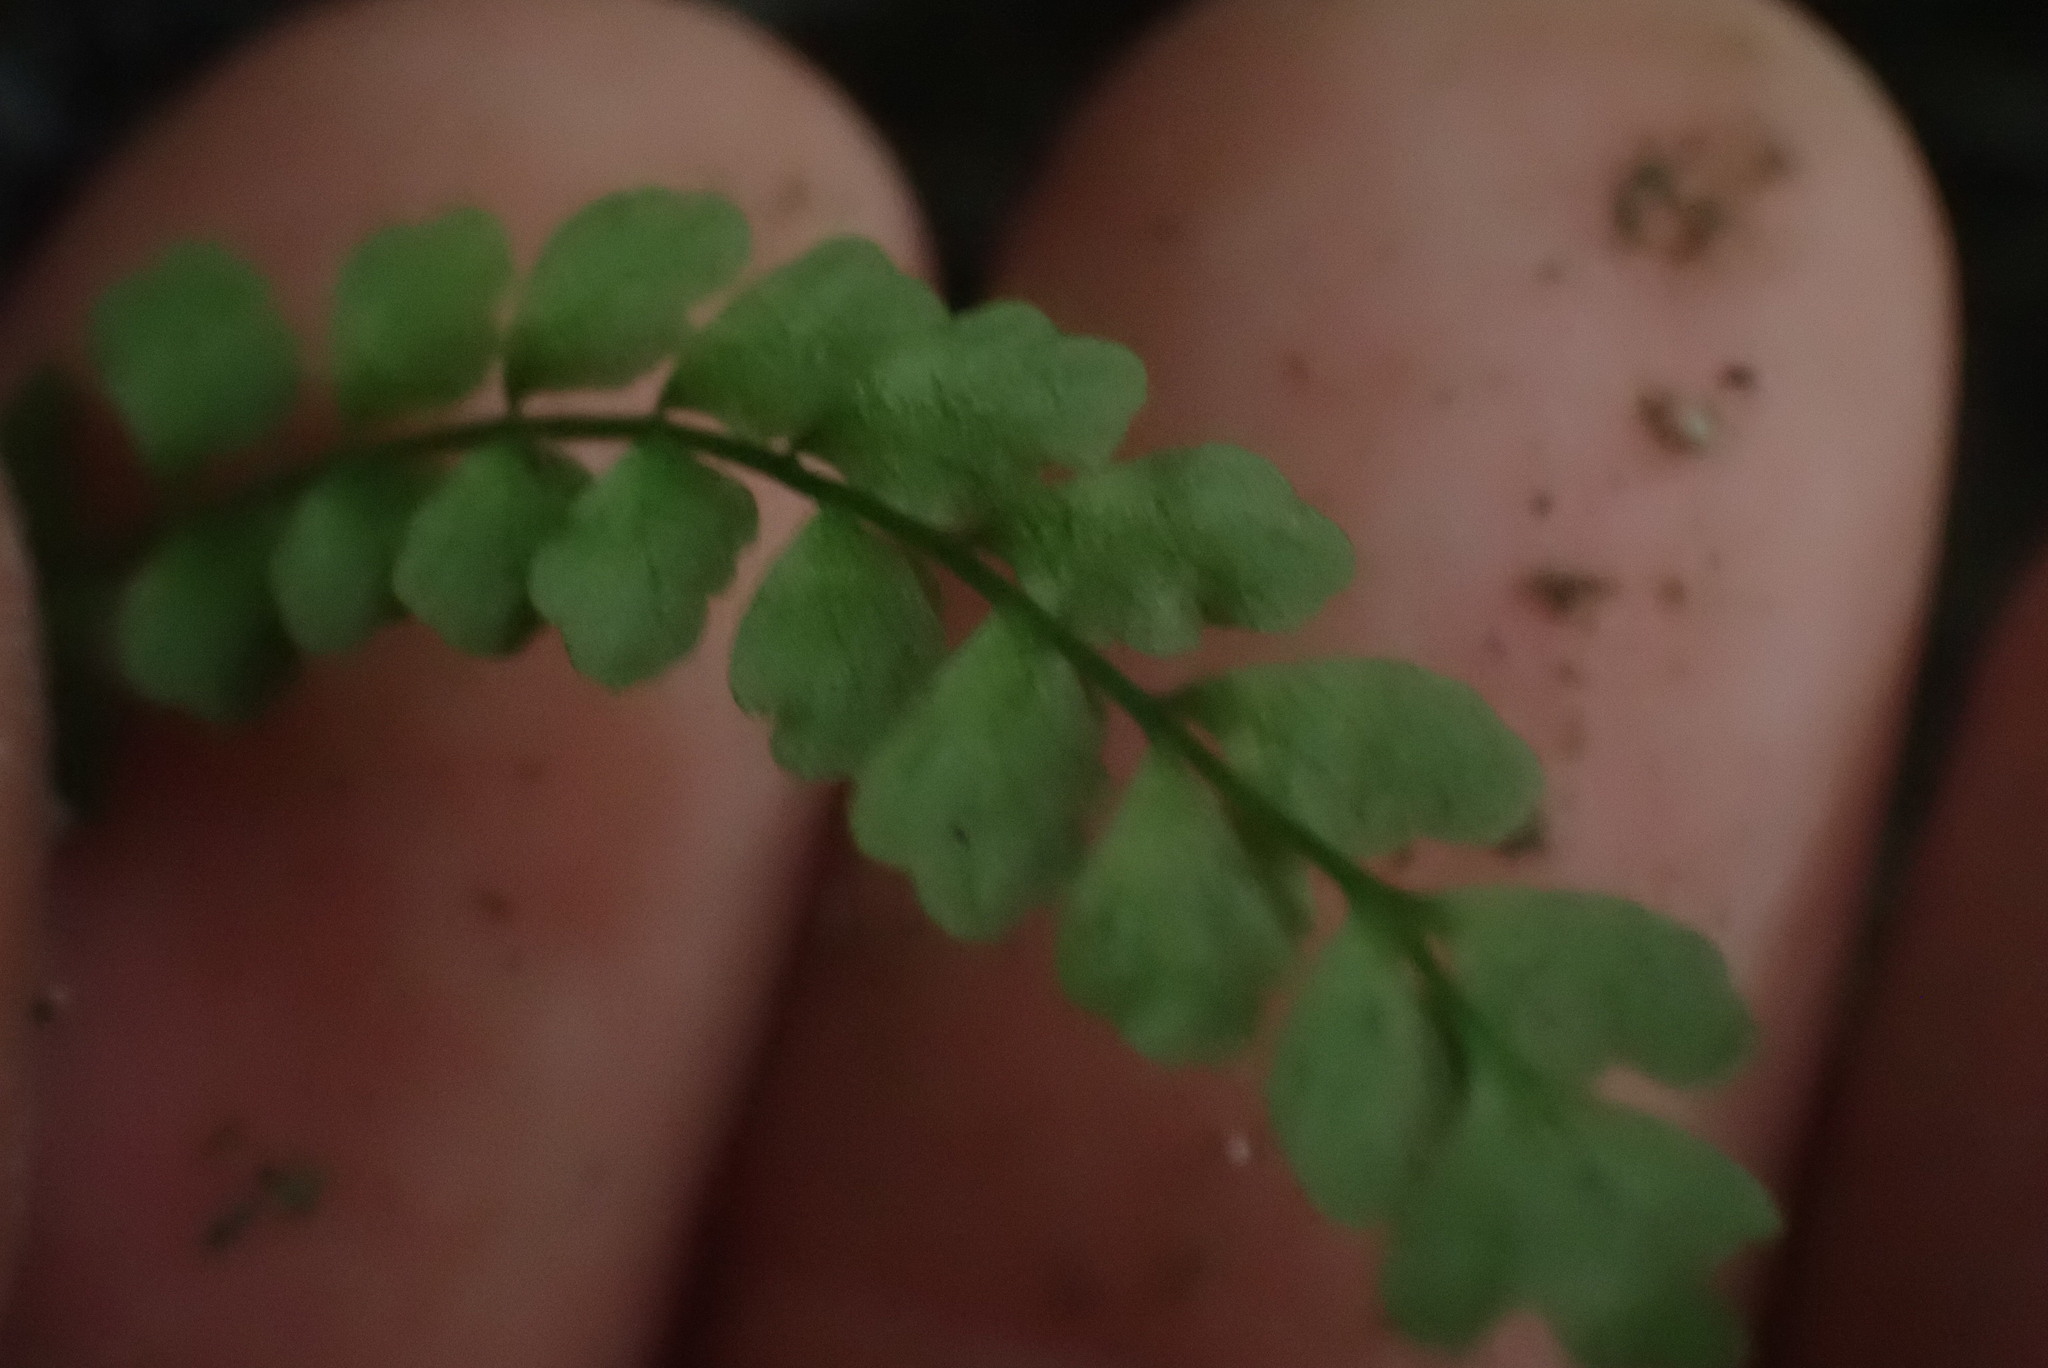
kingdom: Plantae
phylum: Tracheophyta
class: Polypodiopsida
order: Polypodiales
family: Aspleniaceae
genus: Asplenium
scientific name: Asplenium viride
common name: Green spleenwort
